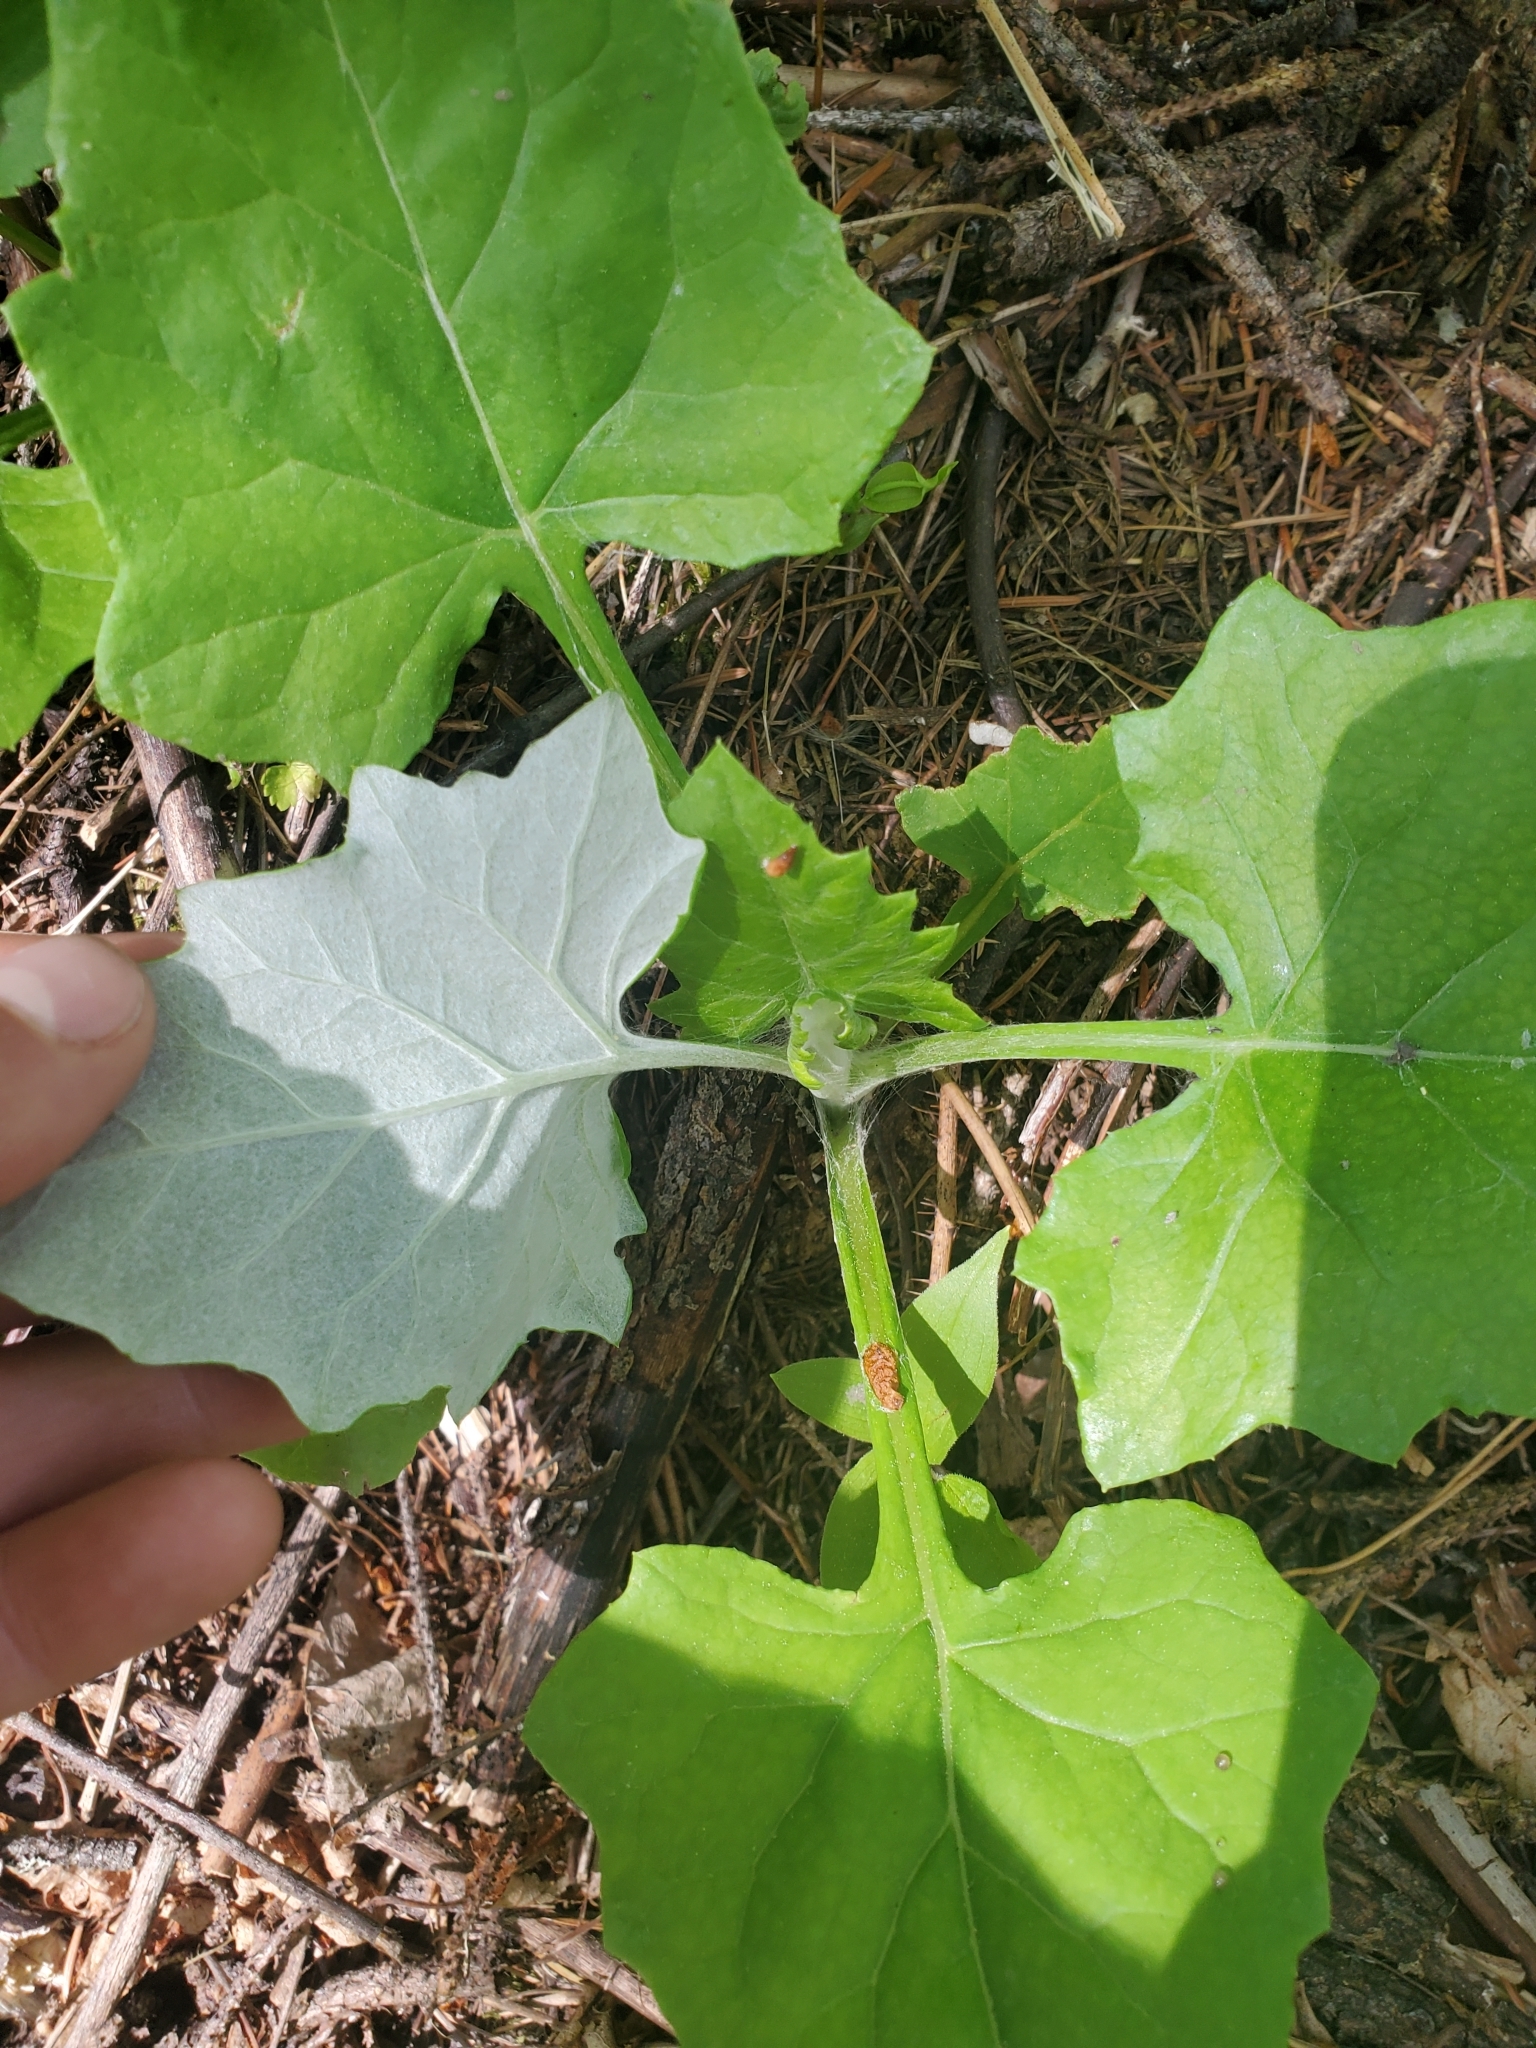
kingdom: Plantae
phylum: Tracheophyta
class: Magnoliopsida
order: Asterales
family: Asteraceae
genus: Adenocaulon
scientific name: Adenocaulon bicolor
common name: Trailplant
